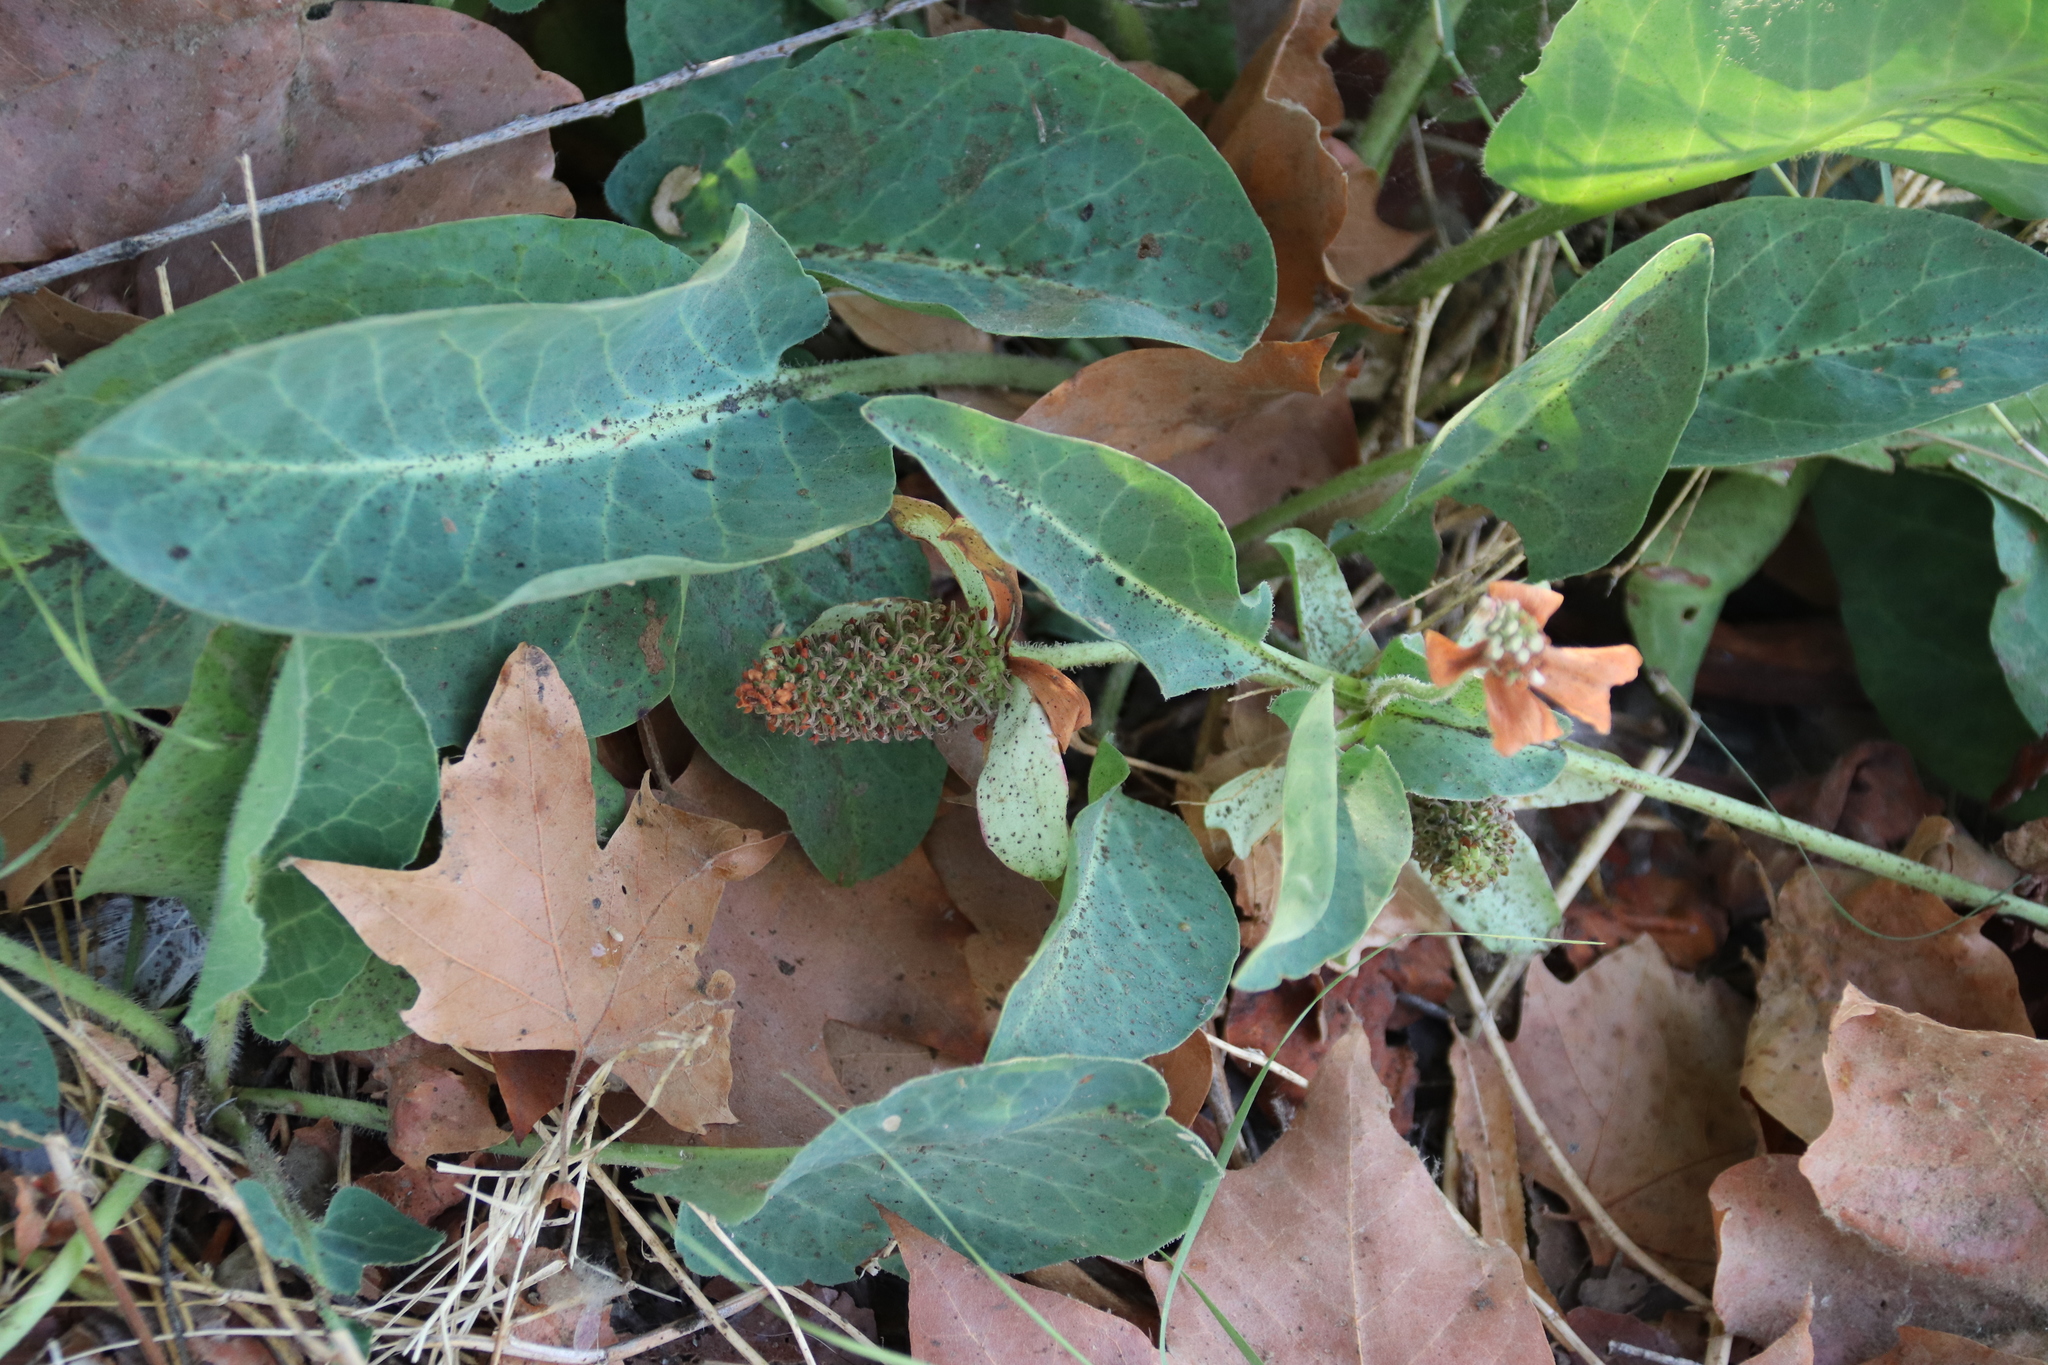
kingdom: Plantae
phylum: Tracheophyta
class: Magnoliopsida
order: Piperales
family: Saururaceae
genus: Anemopsis
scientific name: Anemopsis californica
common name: Apache-beads
